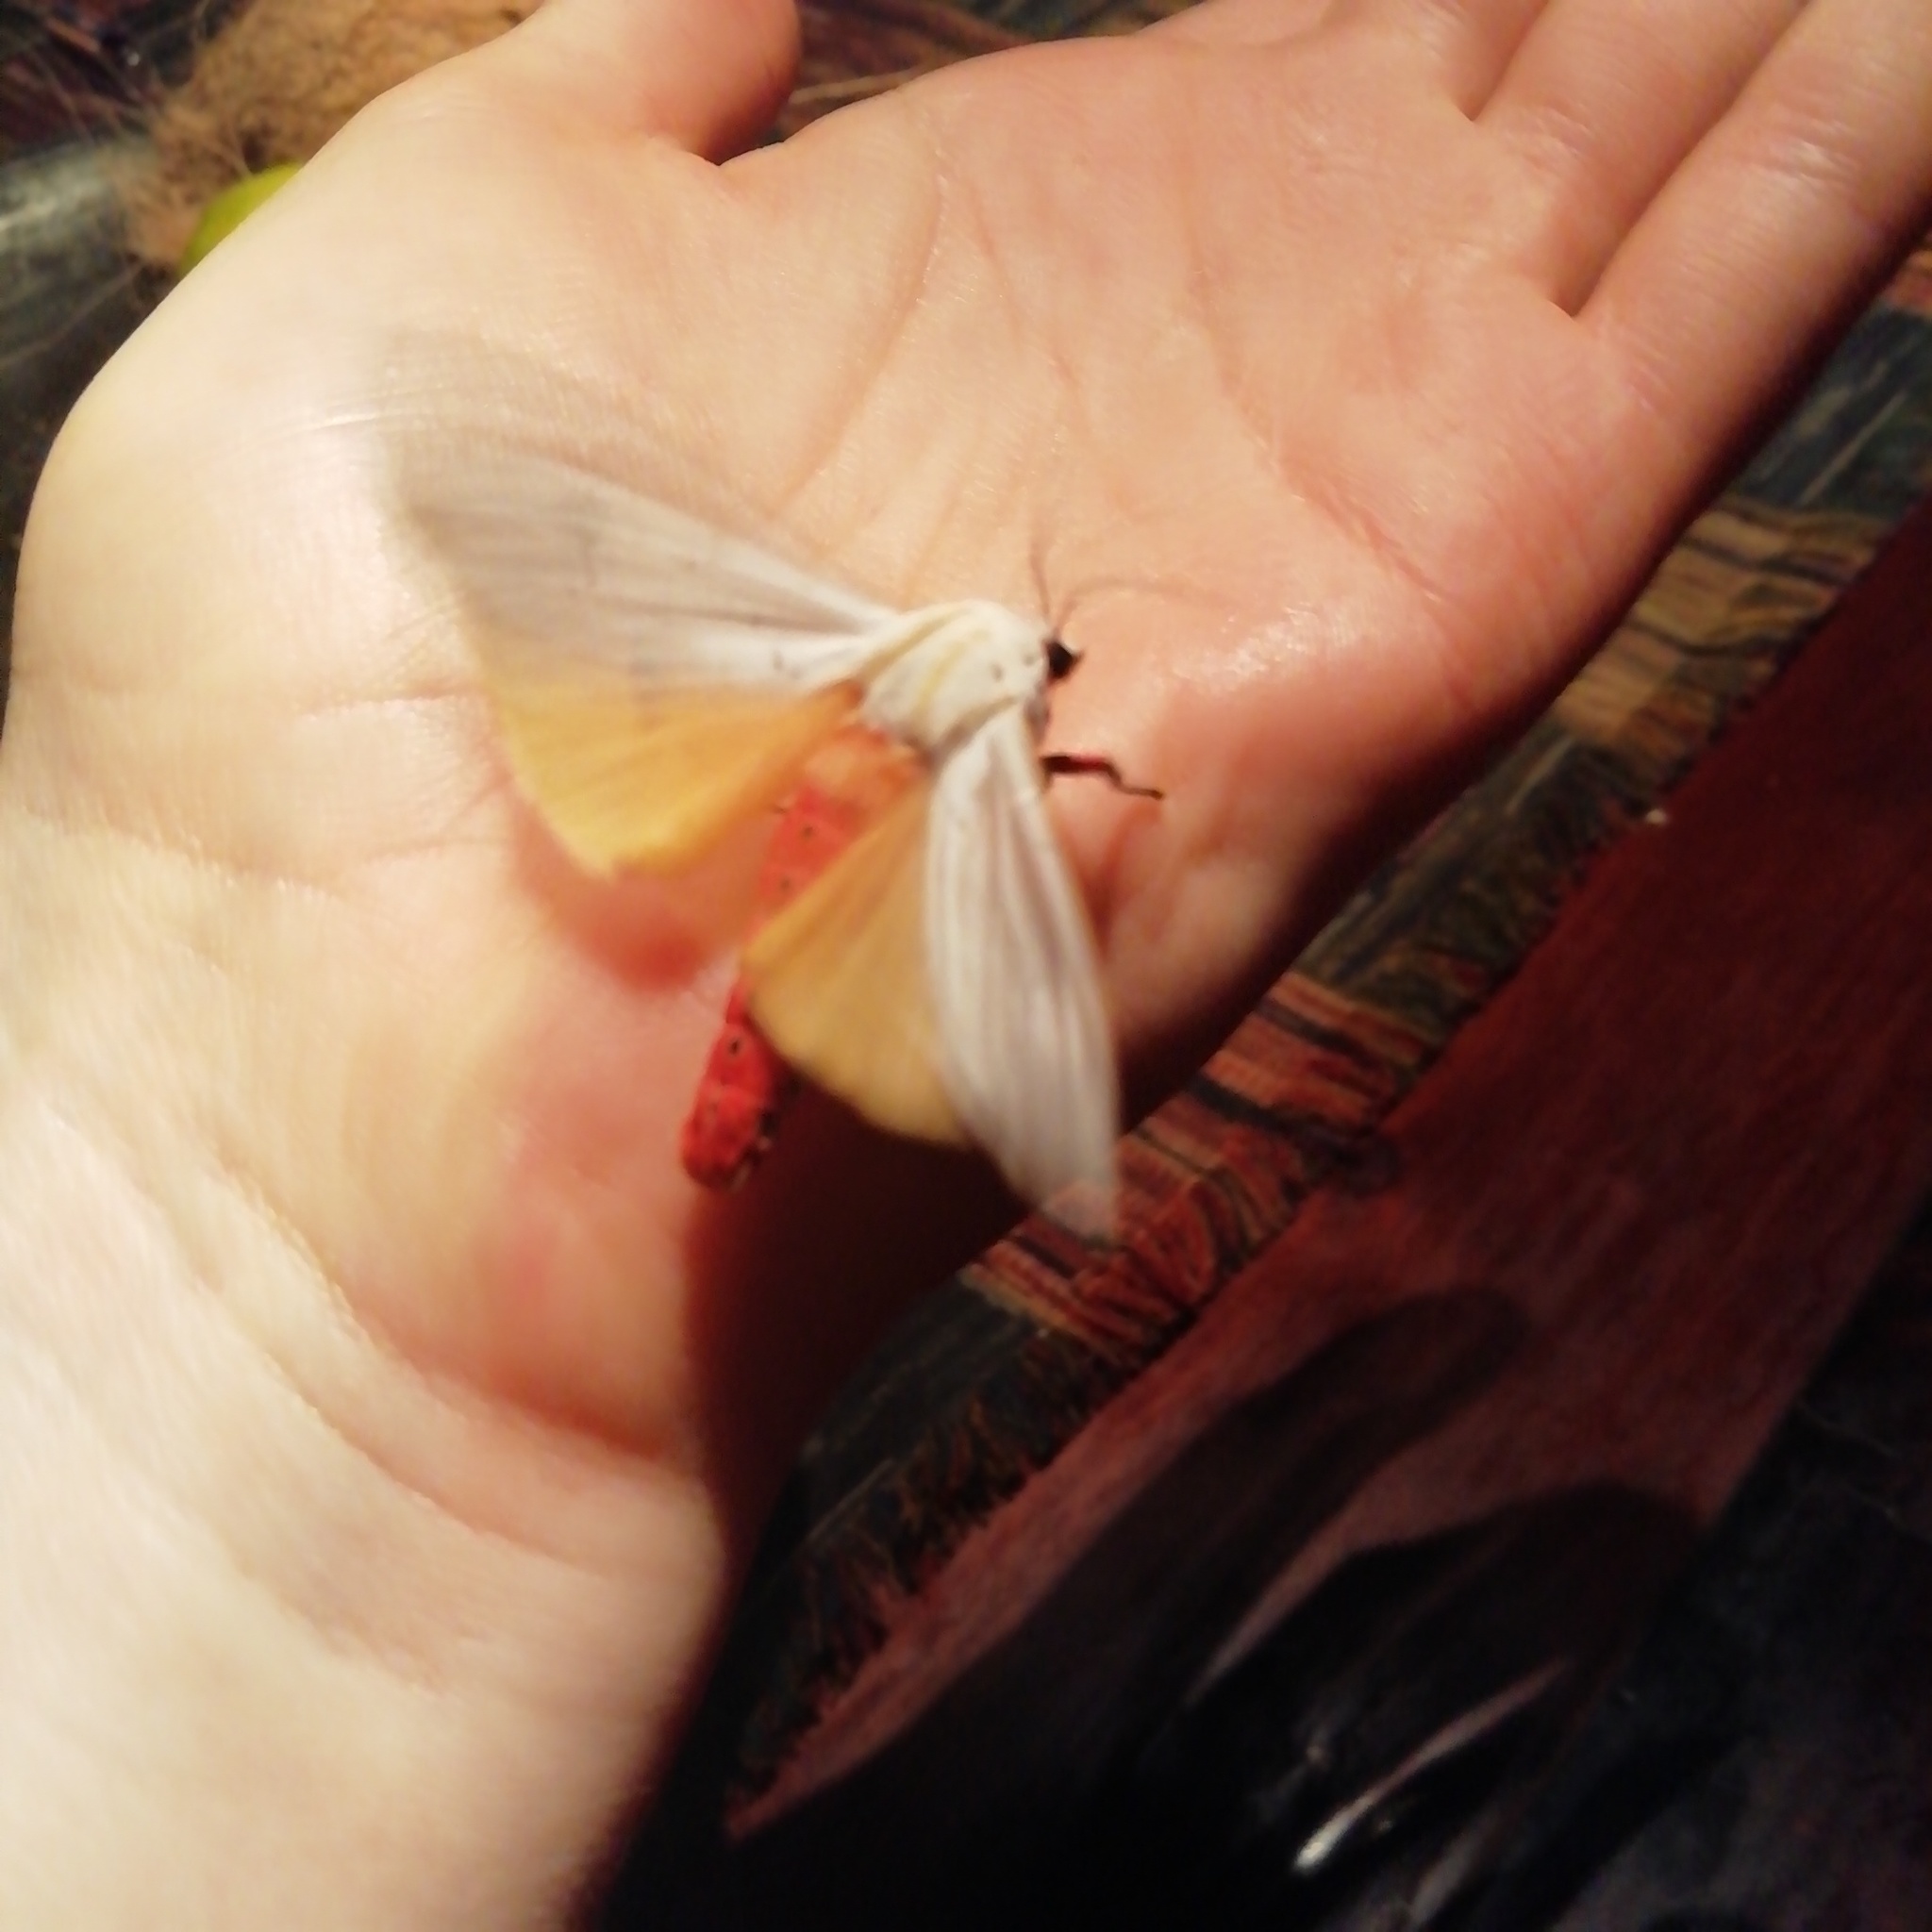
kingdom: Animalia
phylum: Arthropoda
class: Insecta
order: Lepidoptera
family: Erebidae
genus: Rhodogastria
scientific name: Rhodogastria similis
